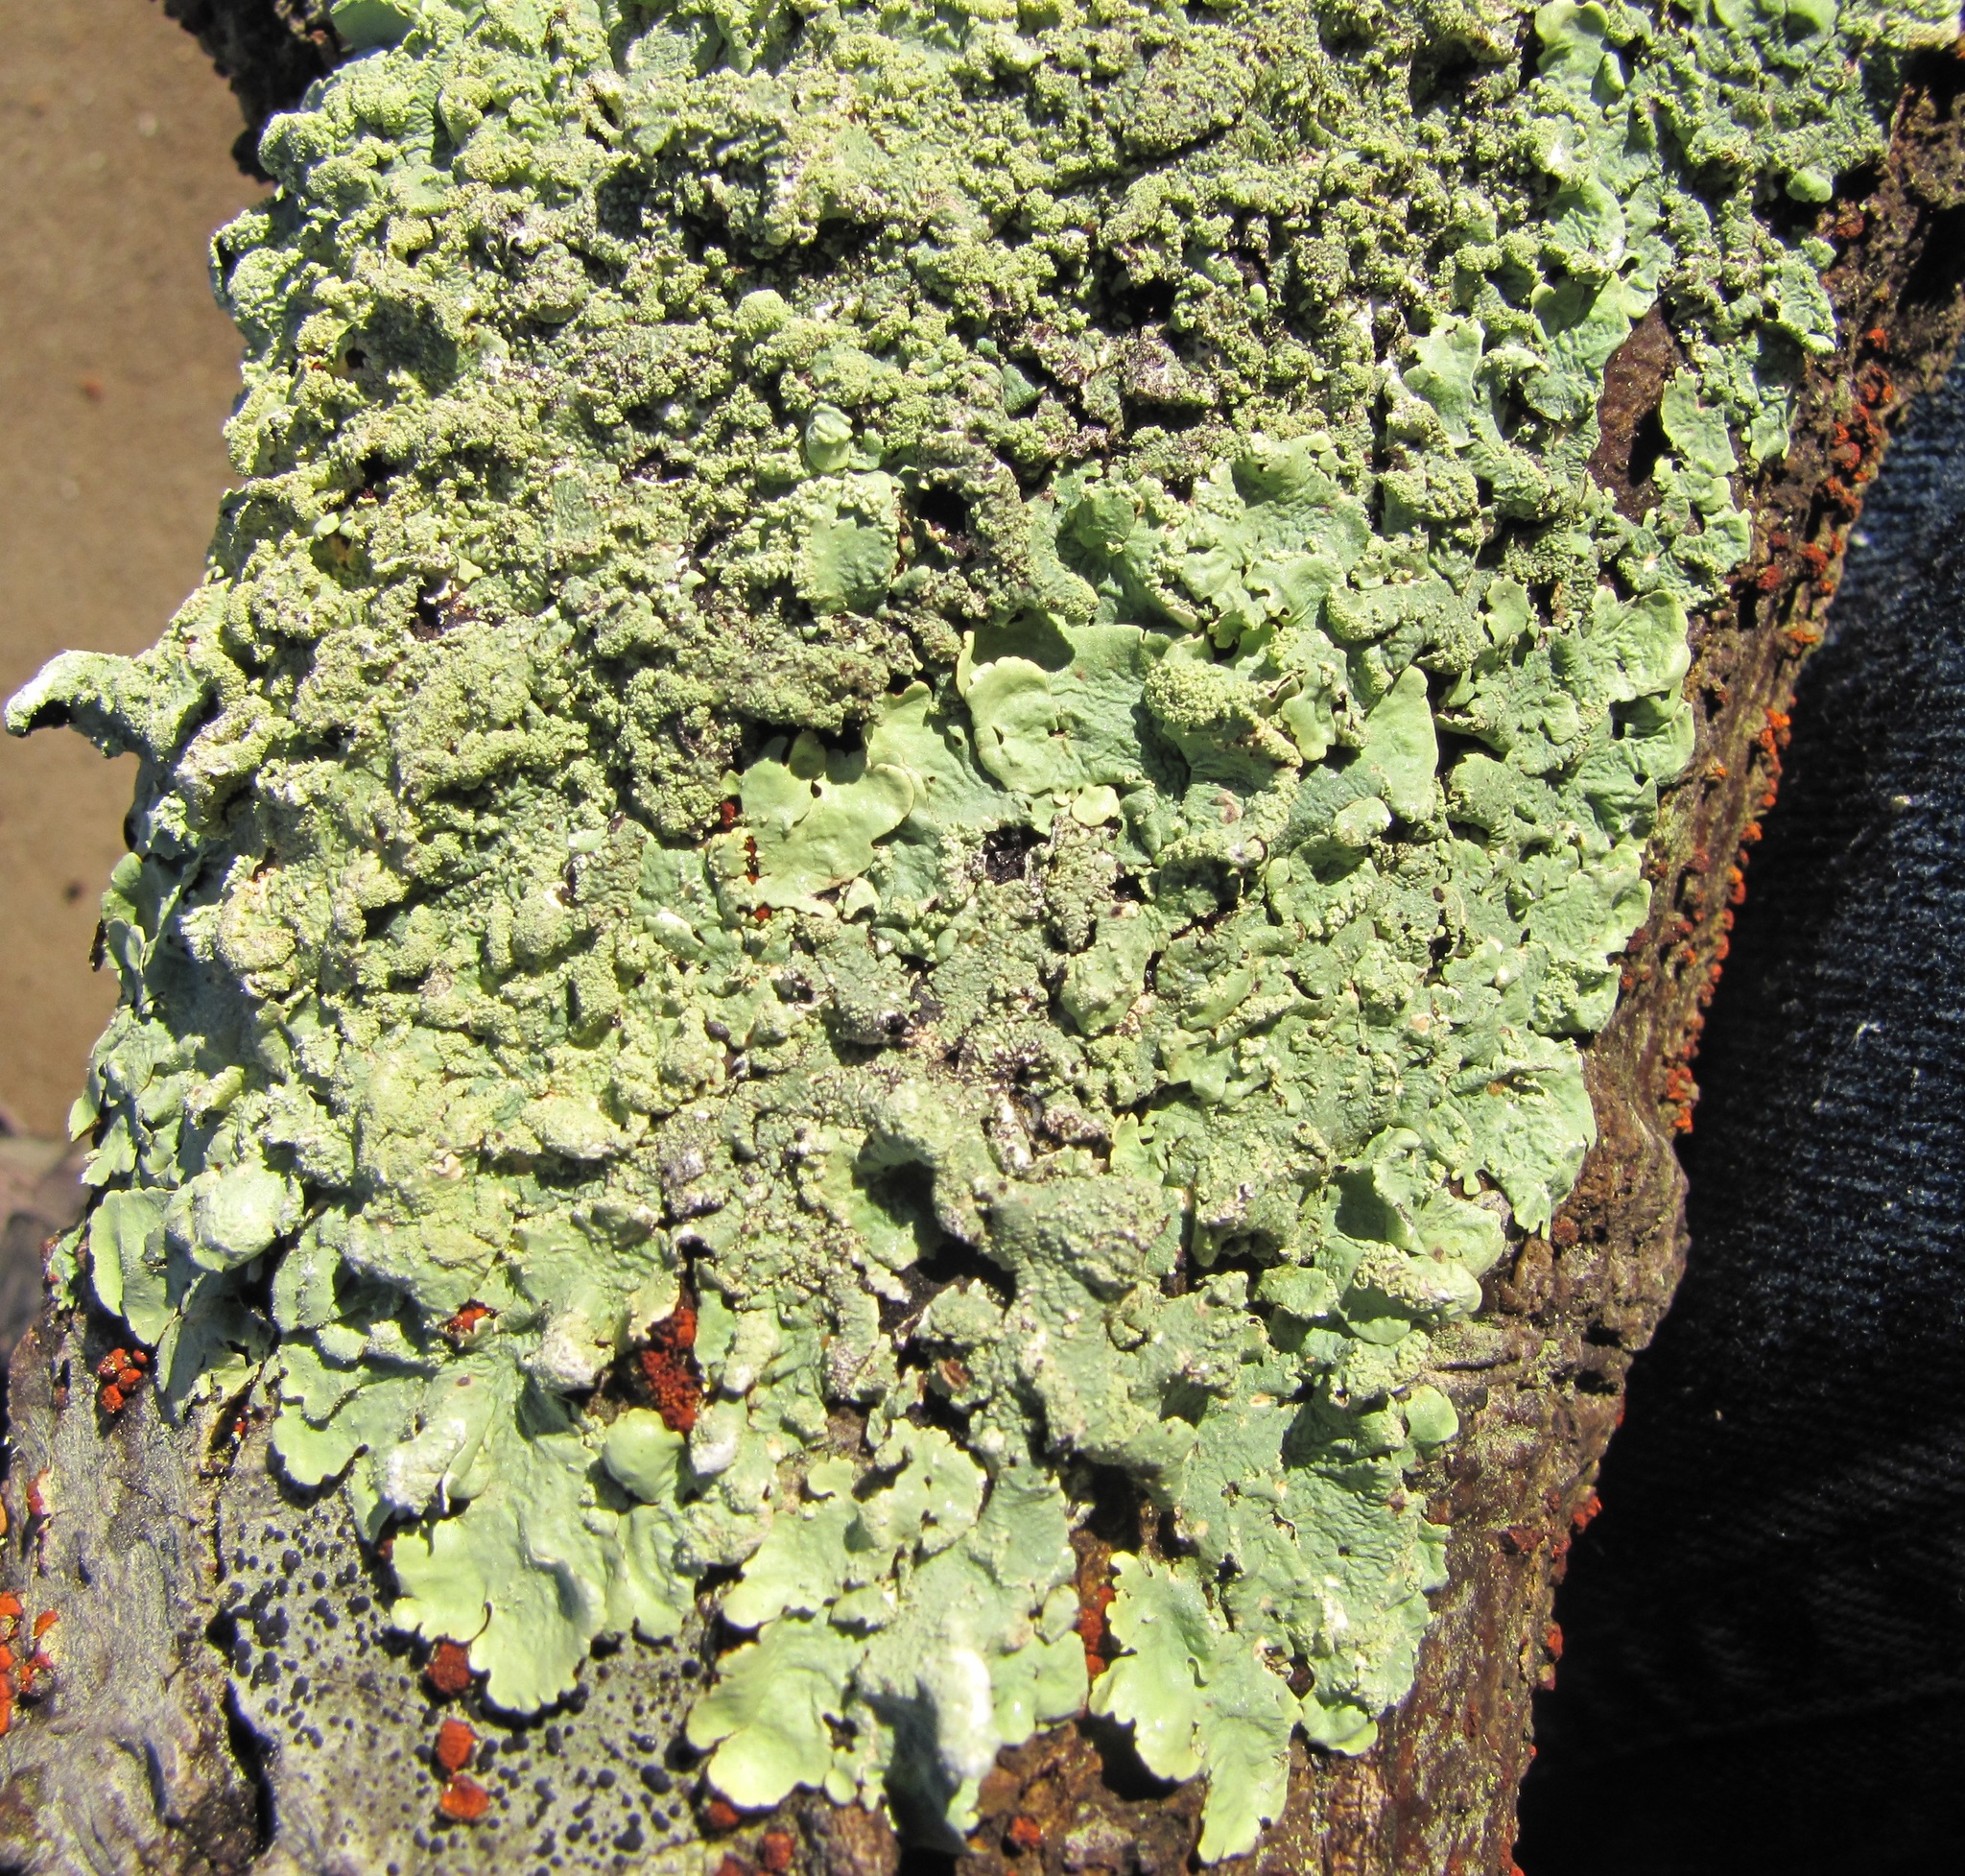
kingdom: Fungi
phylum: Ascomycota
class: Lecanoromycetes
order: Lecanorales
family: Parmeliaceae
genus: Flavoparmelia
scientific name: Flavoparmelia caperata
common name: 40-mile per hour lichen
